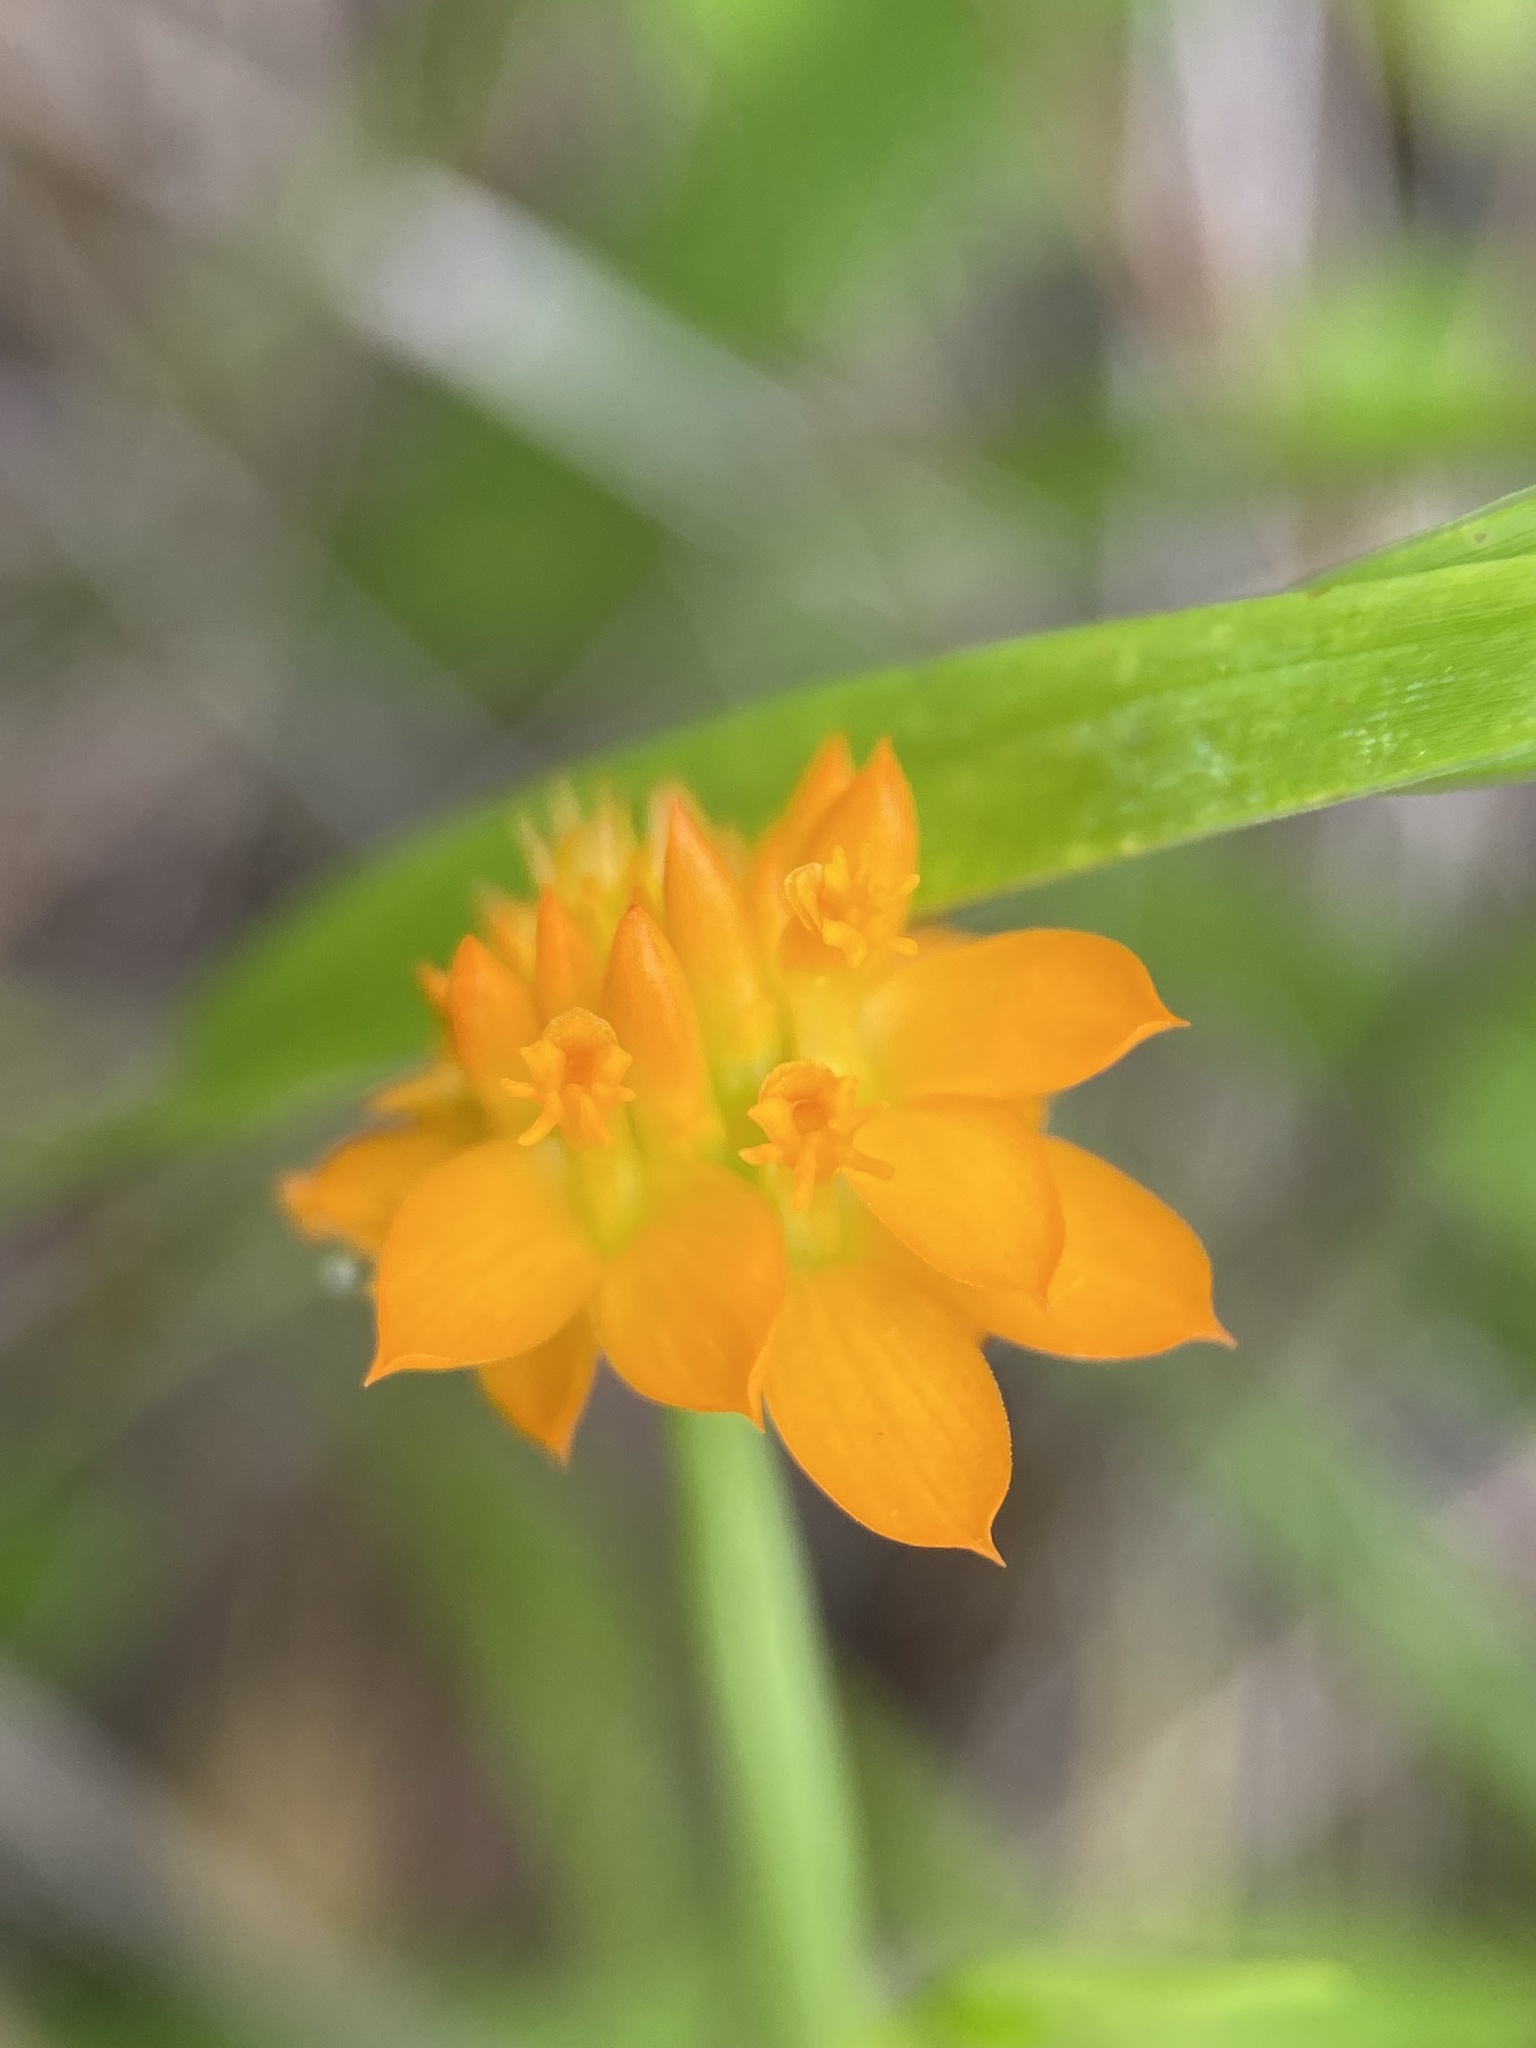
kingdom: Plantae
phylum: Tracheophyta
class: Magnoliopsida
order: Fabales
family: Polygalaceae
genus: Polygala
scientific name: Polygala lutea
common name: Orange milkwort
